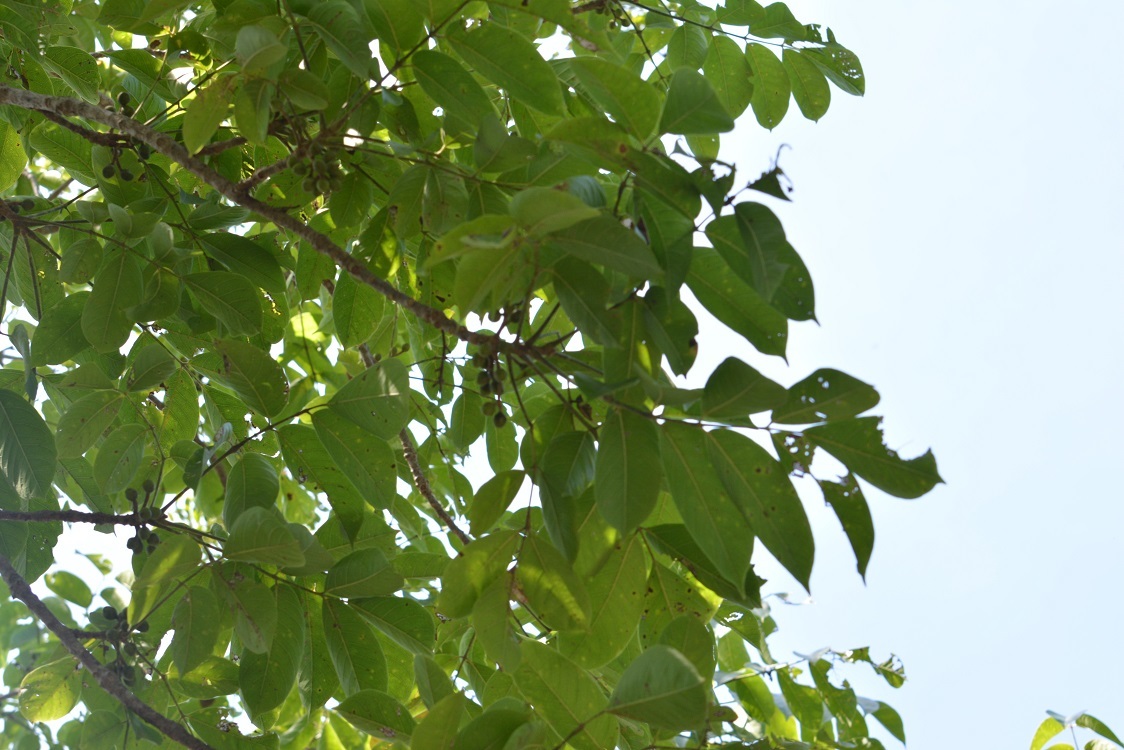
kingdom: Plantae
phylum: Tracheophyta
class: Magnoliopsida
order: Sapindales
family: Burseraceae
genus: Bursera
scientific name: Bursera simaruba
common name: Turpentine tree
